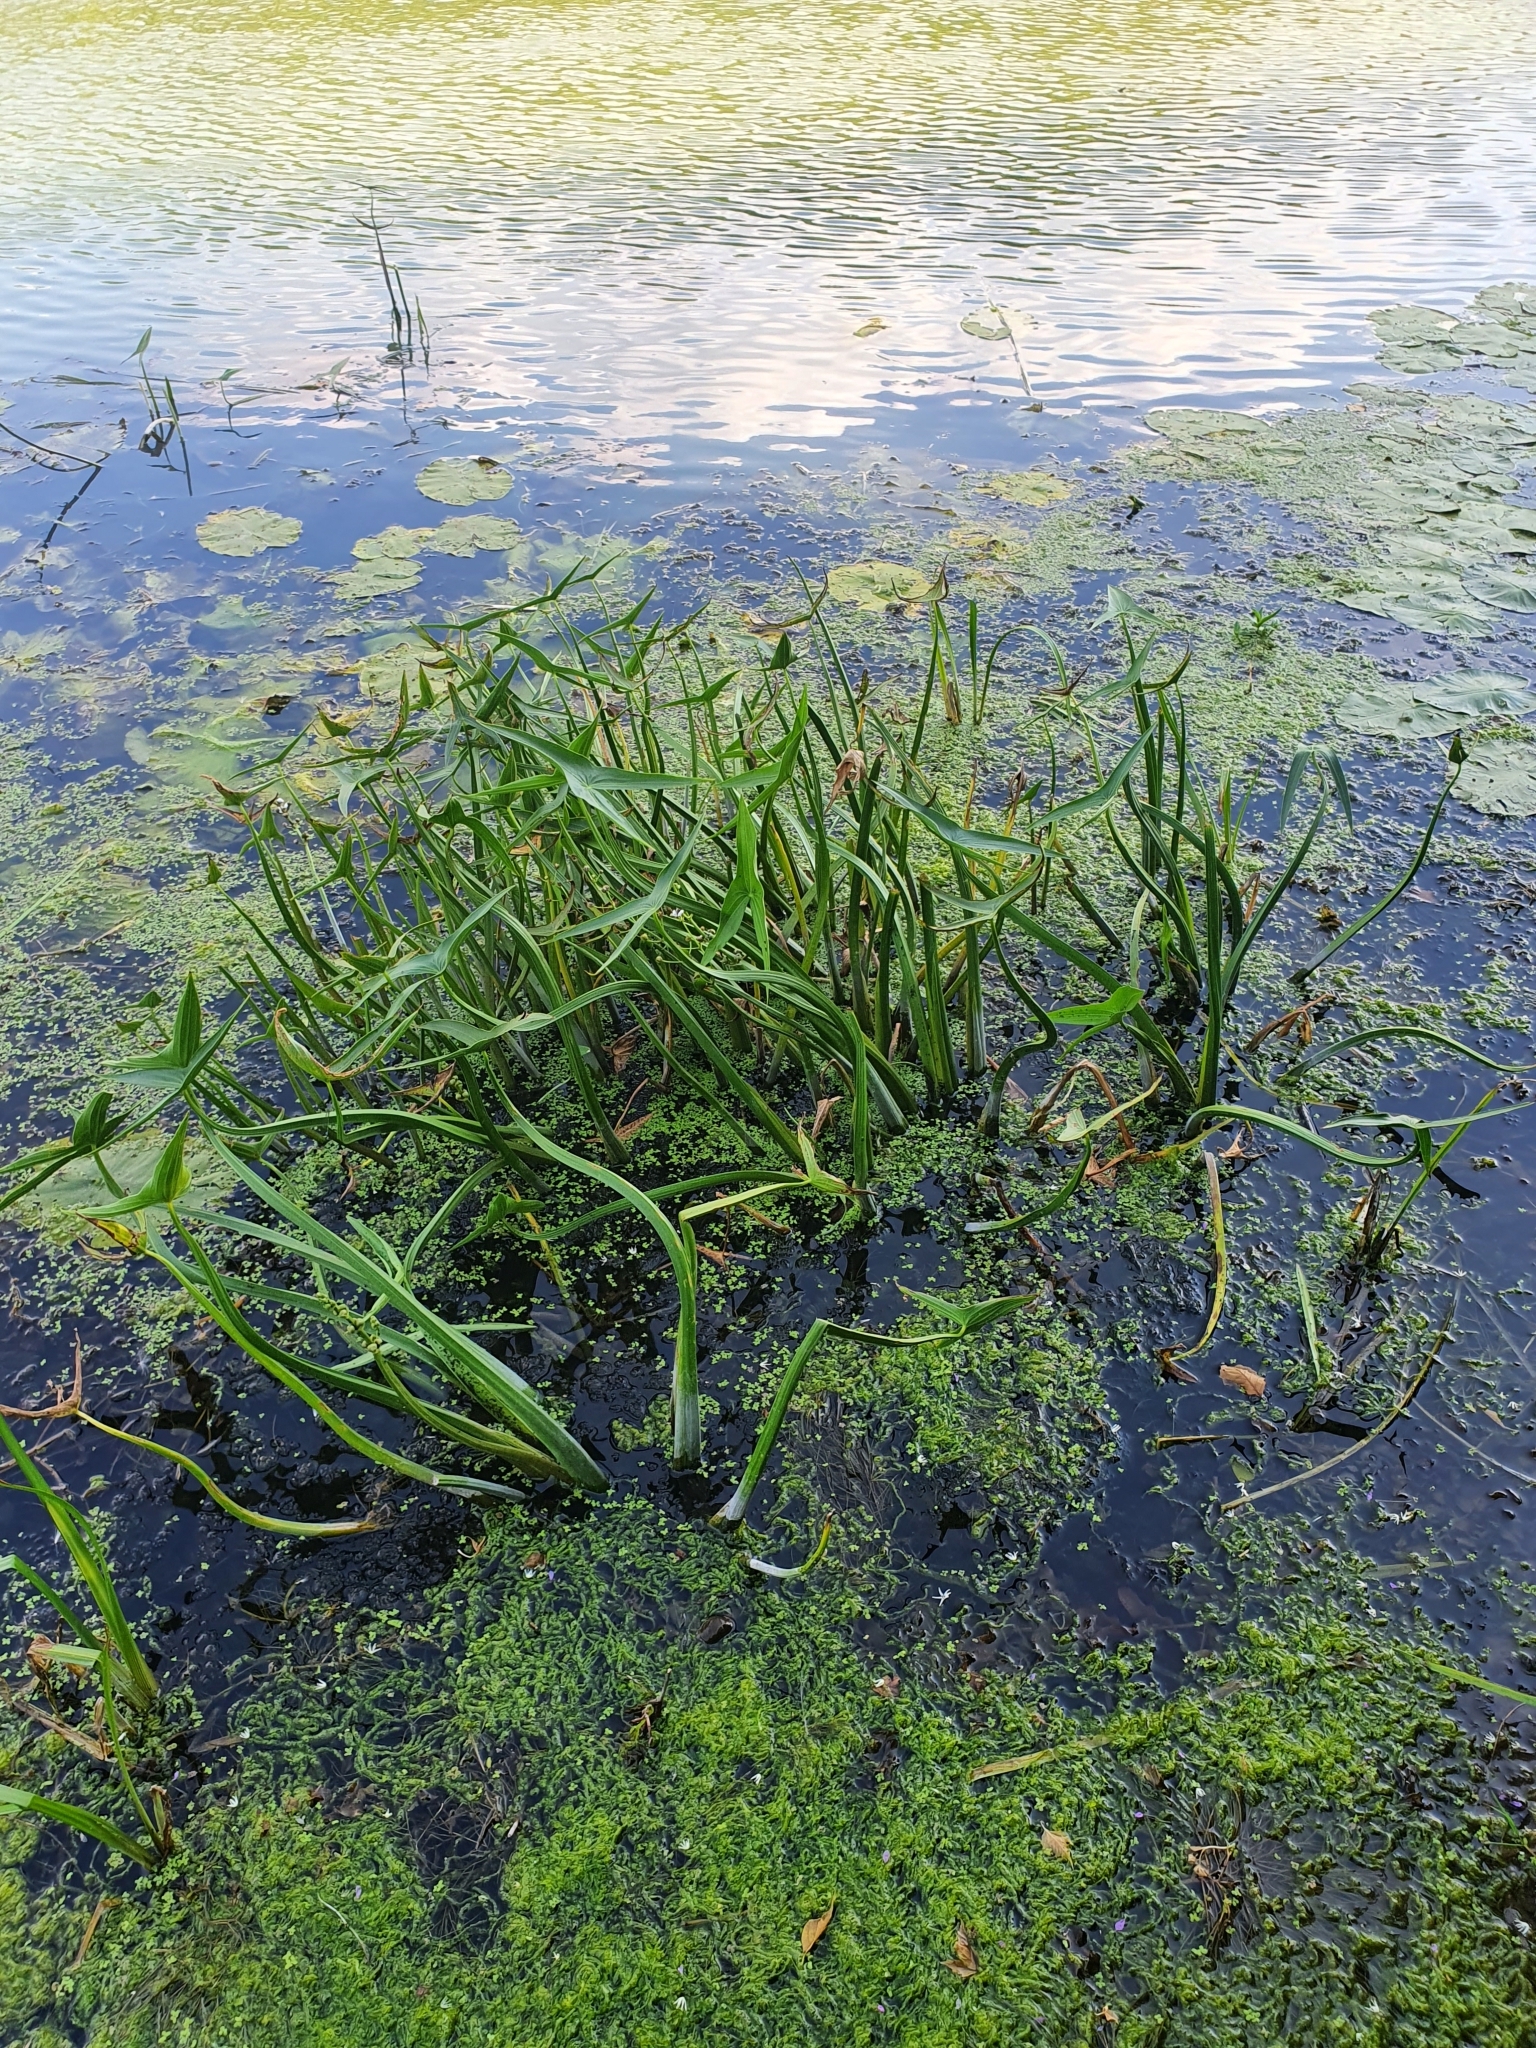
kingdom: Plantae
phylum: Tracheophyta
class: Liliopsida
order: Alismatales
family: Alismataceae
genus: Sagittaria
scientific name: Sagittaria sagittifolia
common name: Arrowhead
